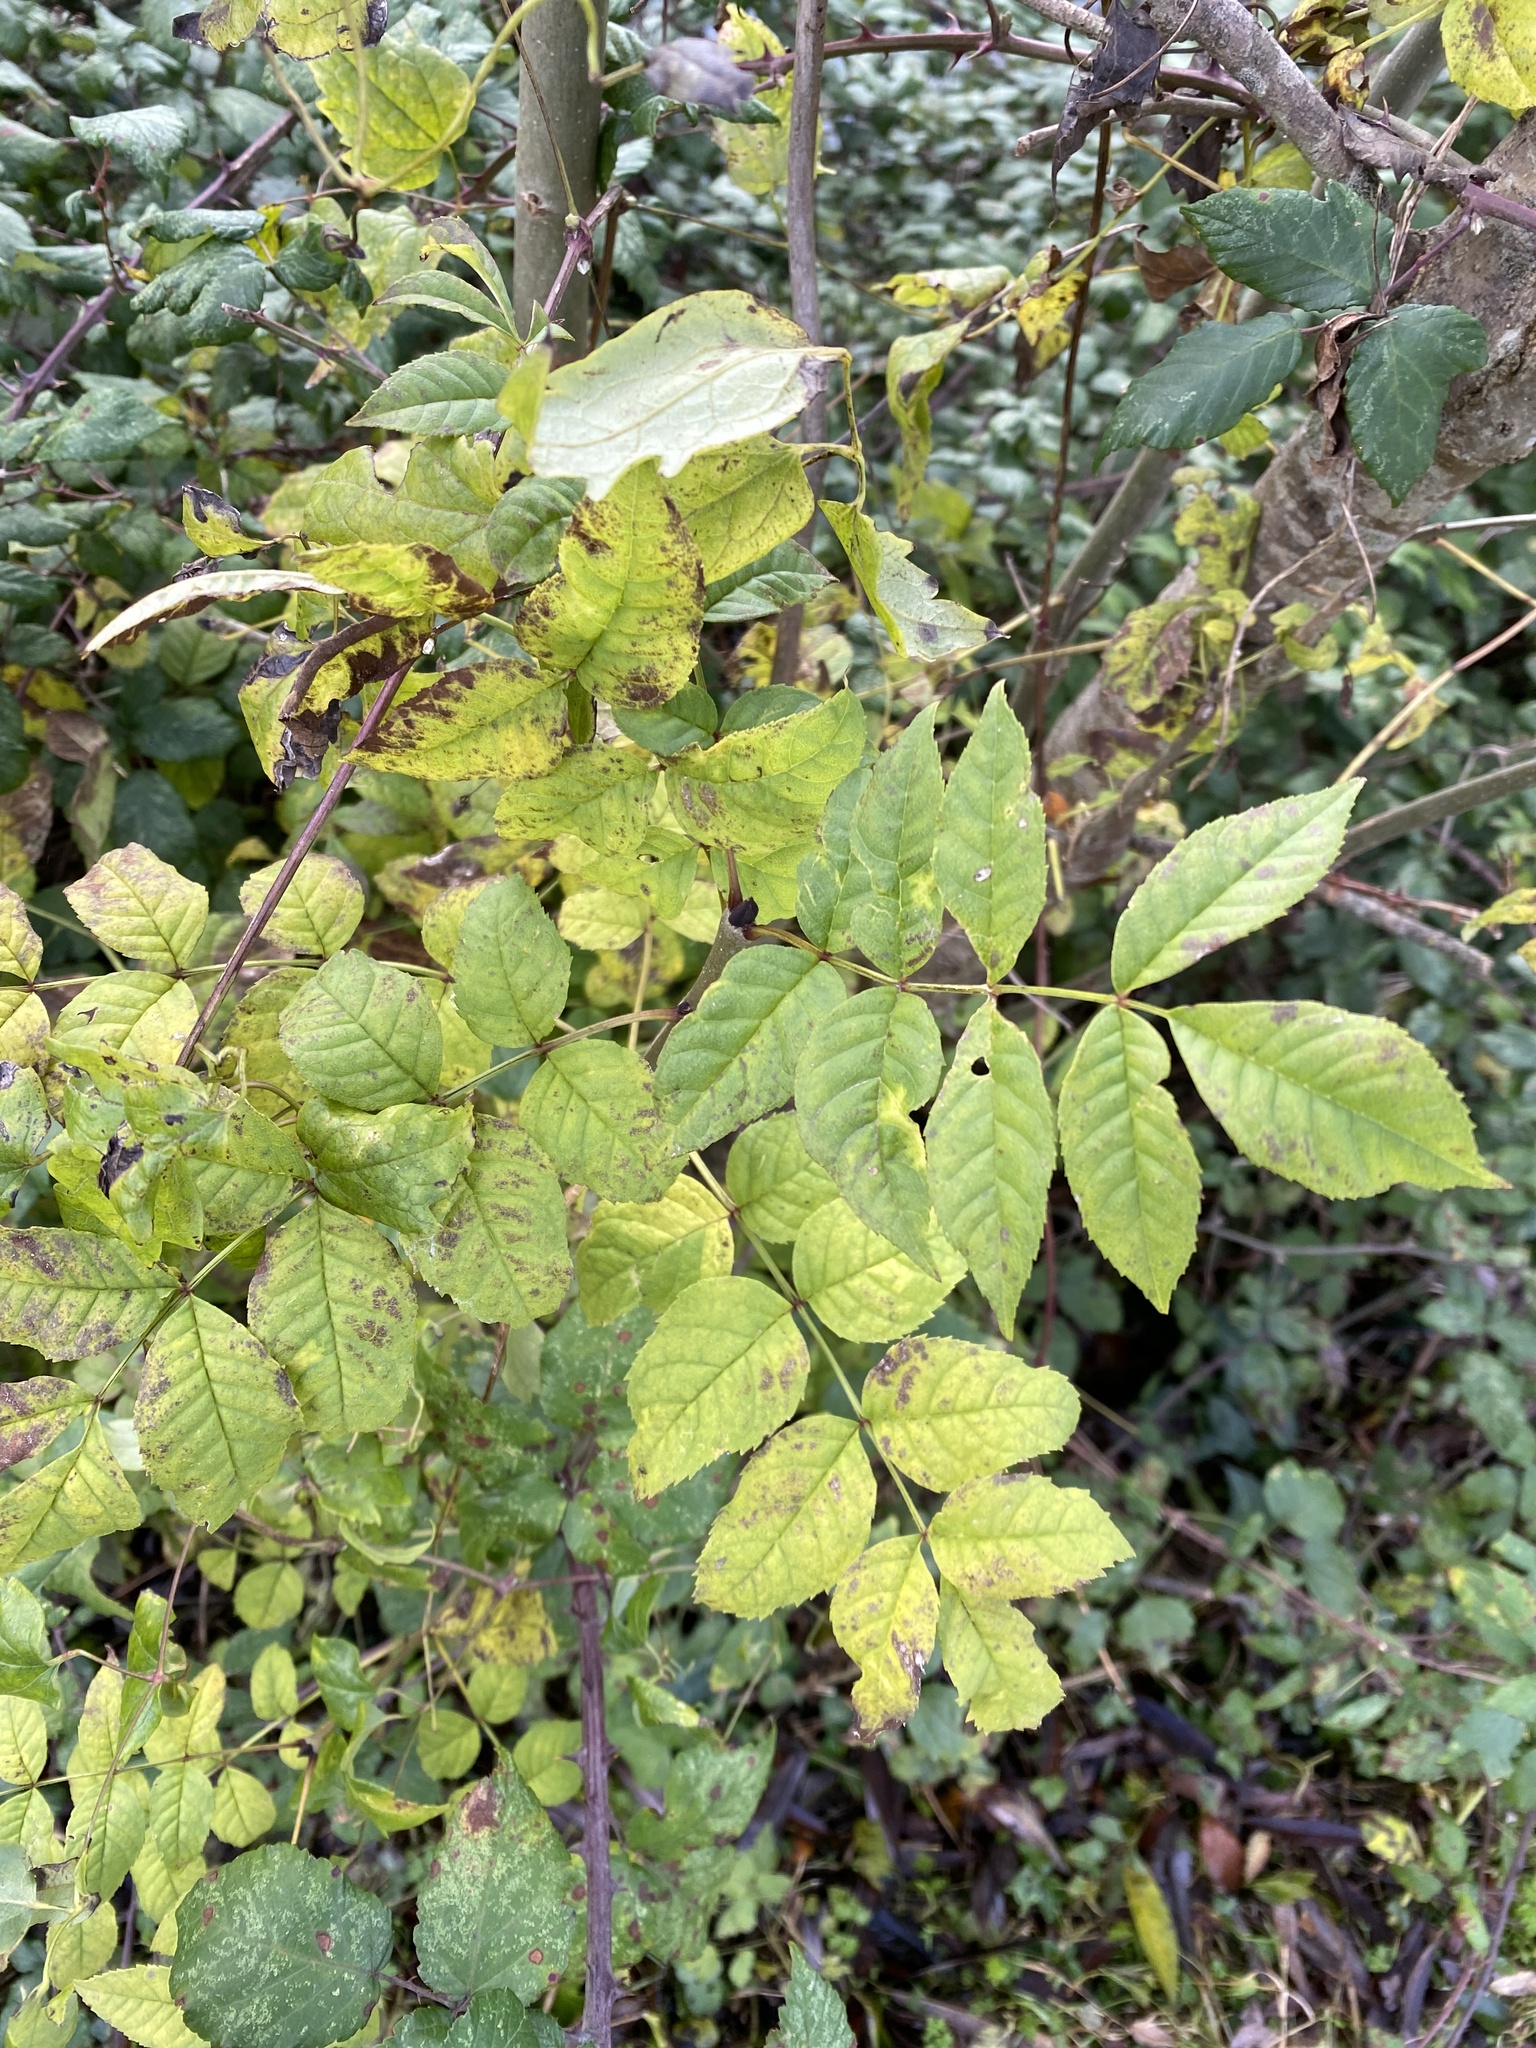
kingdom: Plantae
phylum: Tracheophyta
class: Magnoliopsida
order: Lamiales
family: Oleaceae
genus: Fraxinus
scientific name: Fraxinus excelsior
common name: European ash
